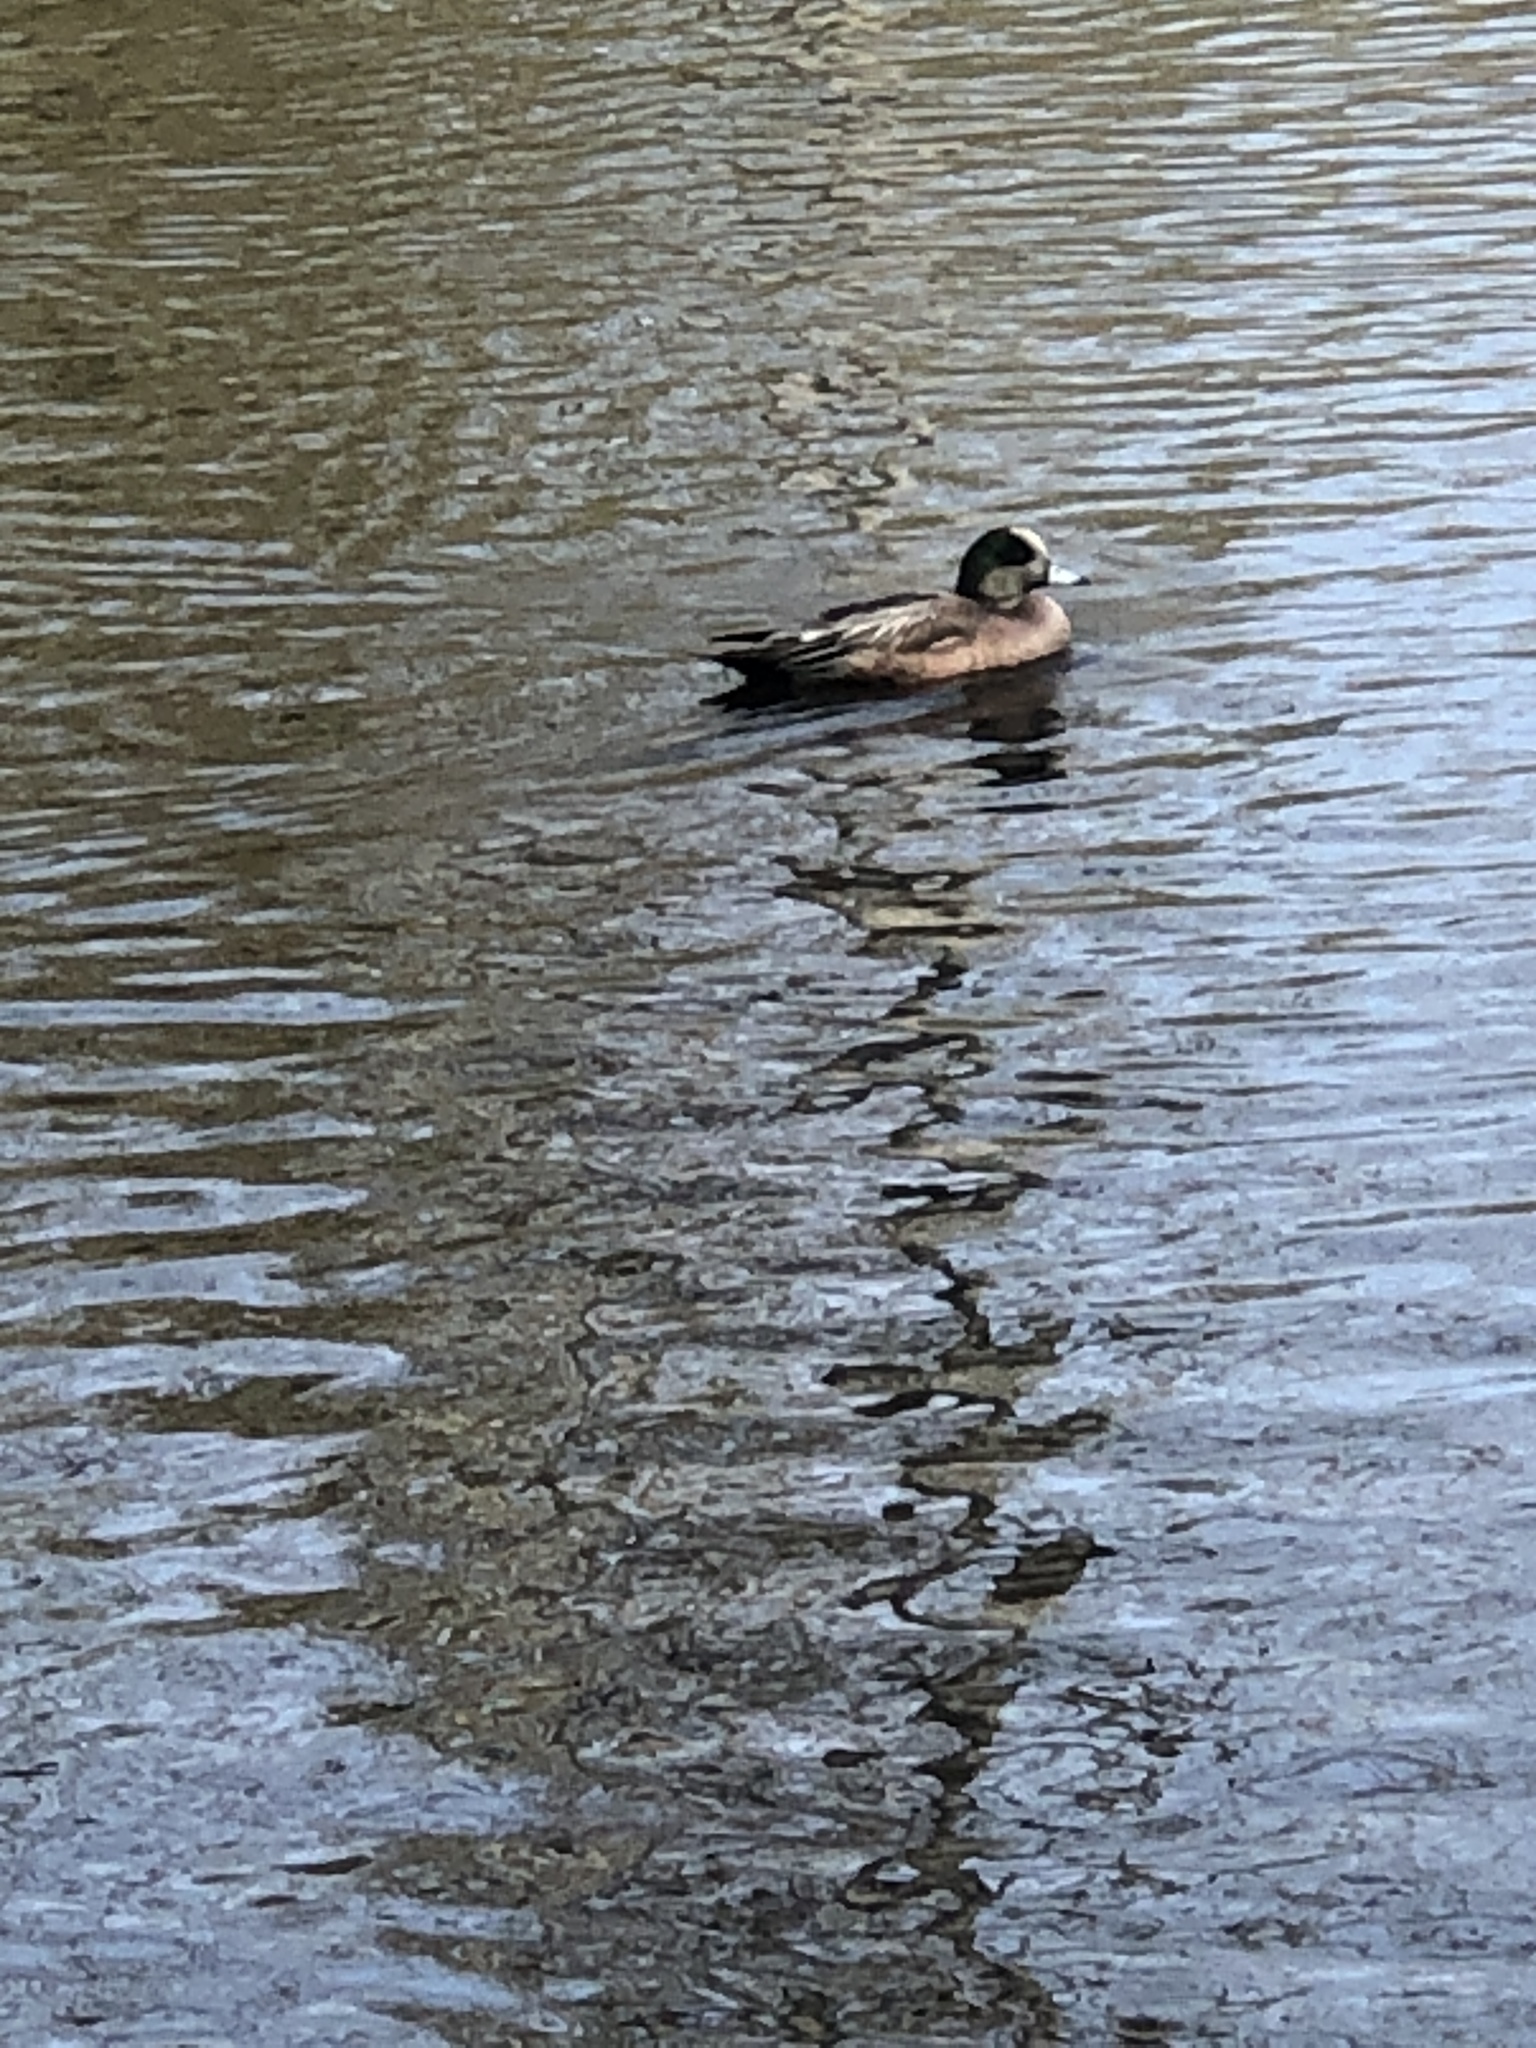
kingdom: Animalia
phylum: Chordata
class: Aves
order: Anseriformes
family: Anatidae
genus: Mareca
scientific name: Mareca americana
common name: American wigeon
